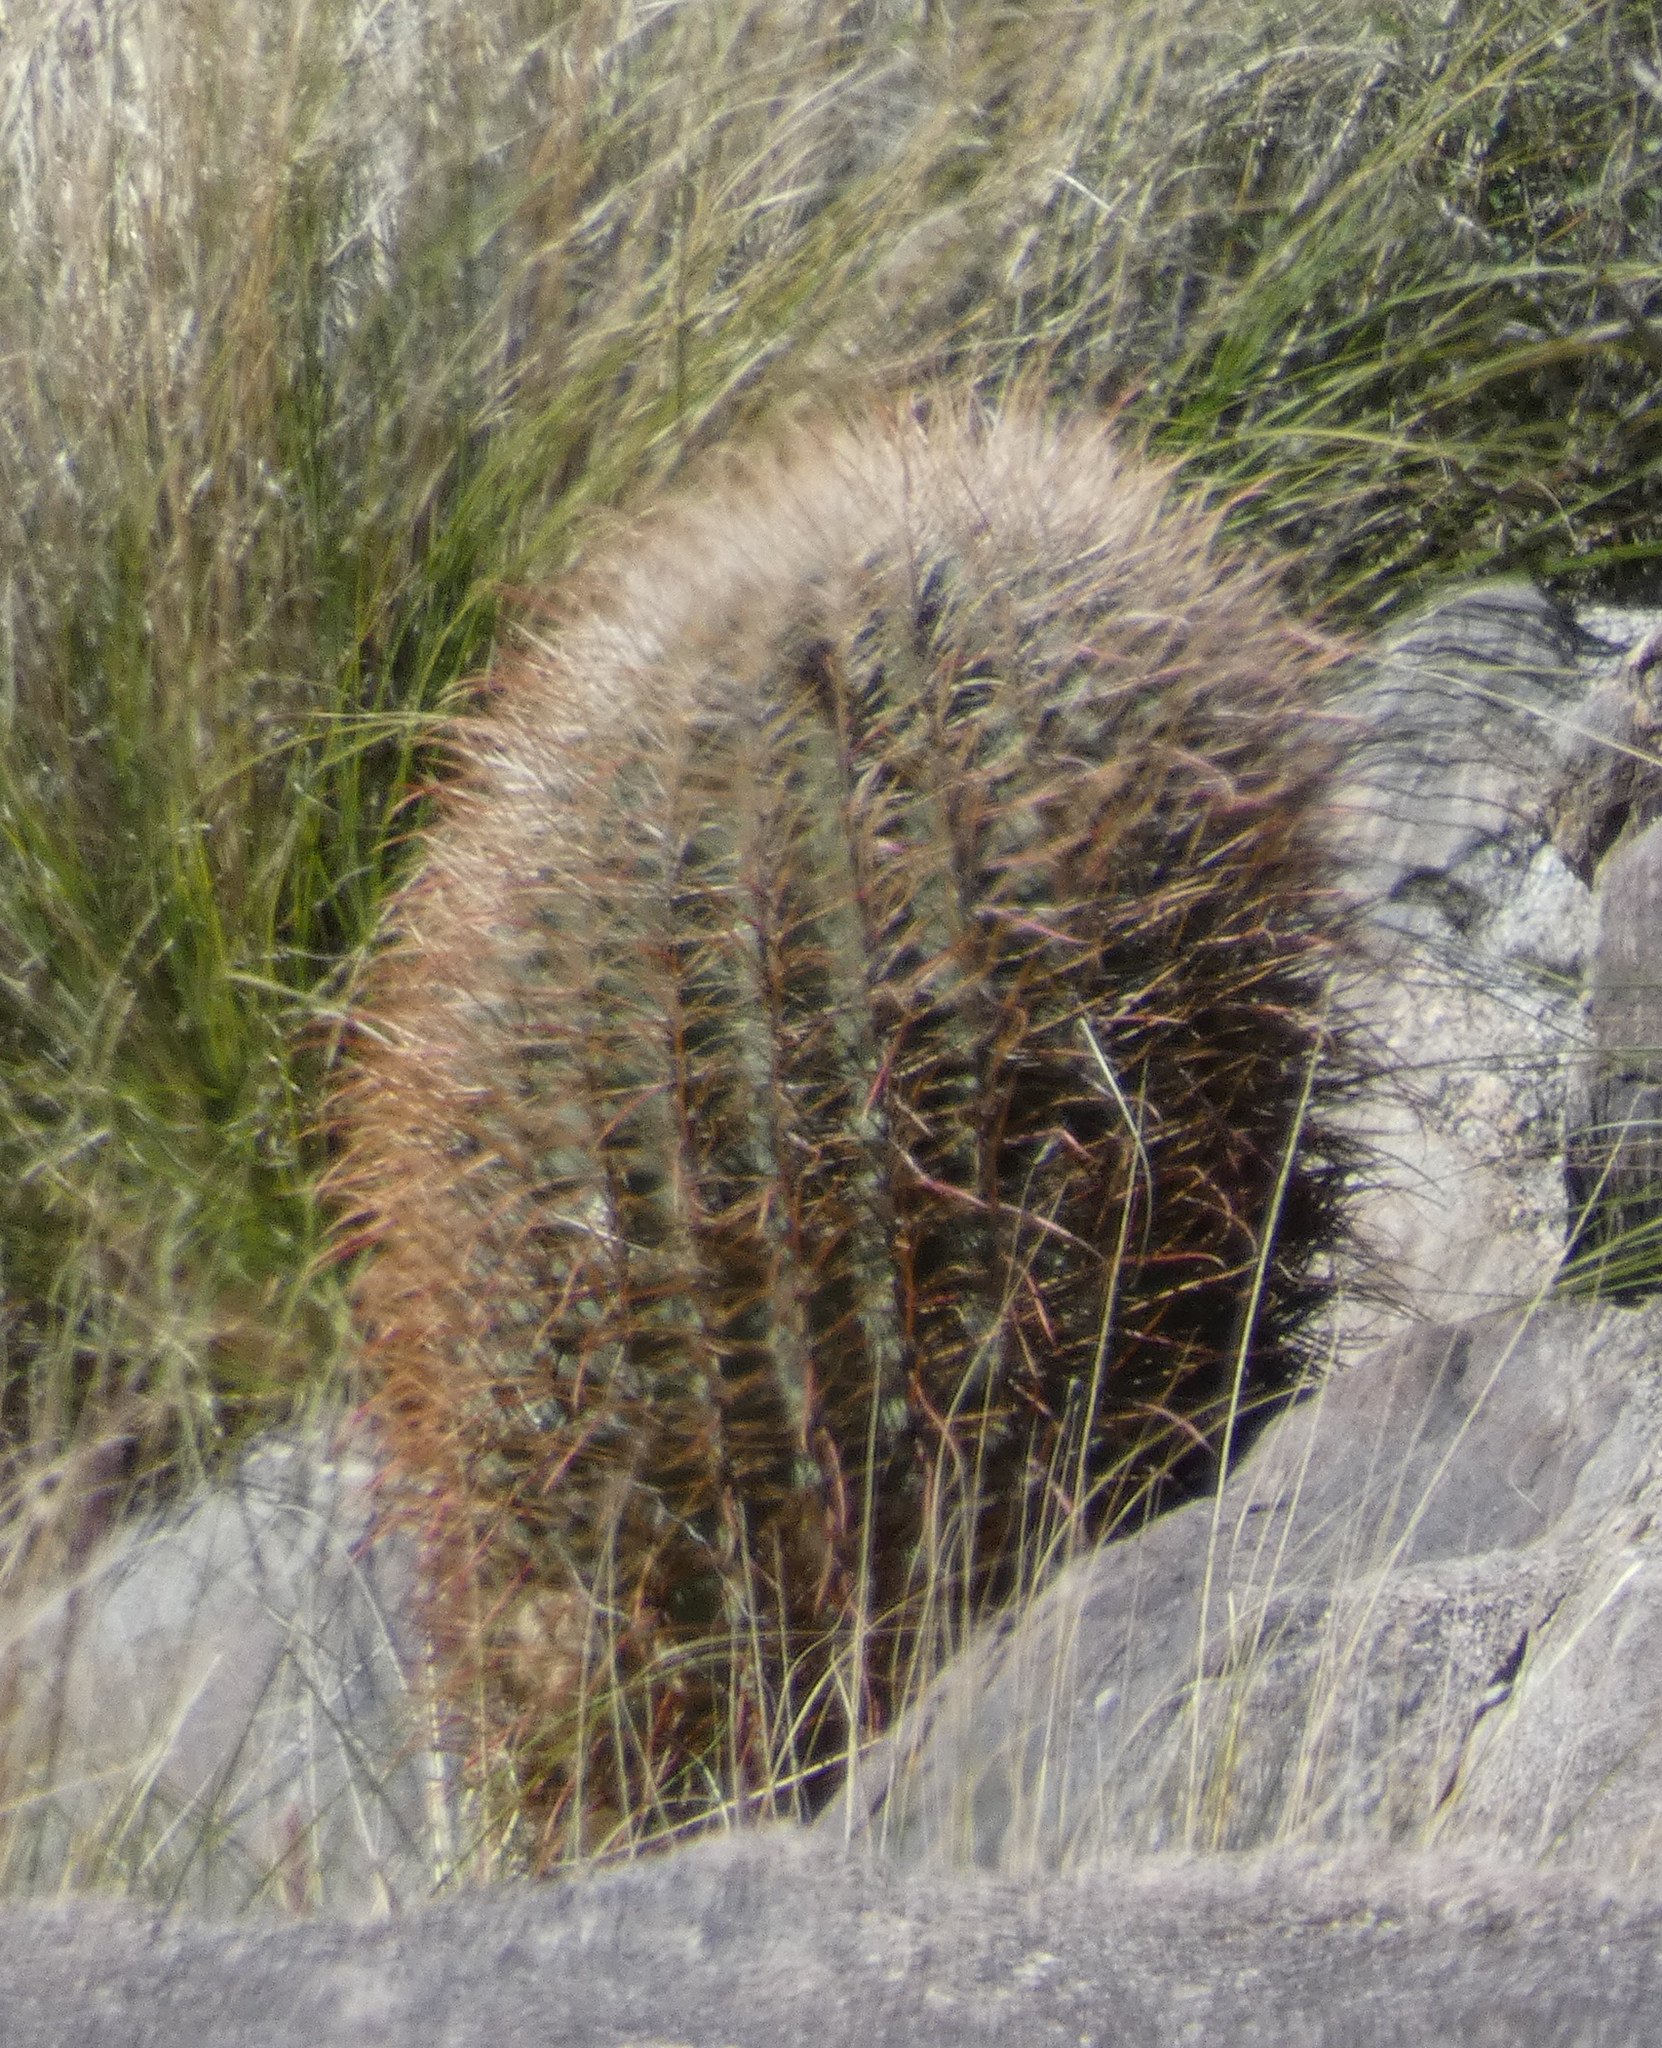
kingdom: Plantae
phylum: Tracheophyta
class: Magnoliopsida
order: Caryophyllales
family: Cactaceae
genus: Ferocactus
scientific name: Ferocactus cylindraceus
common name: California barrel cactus
